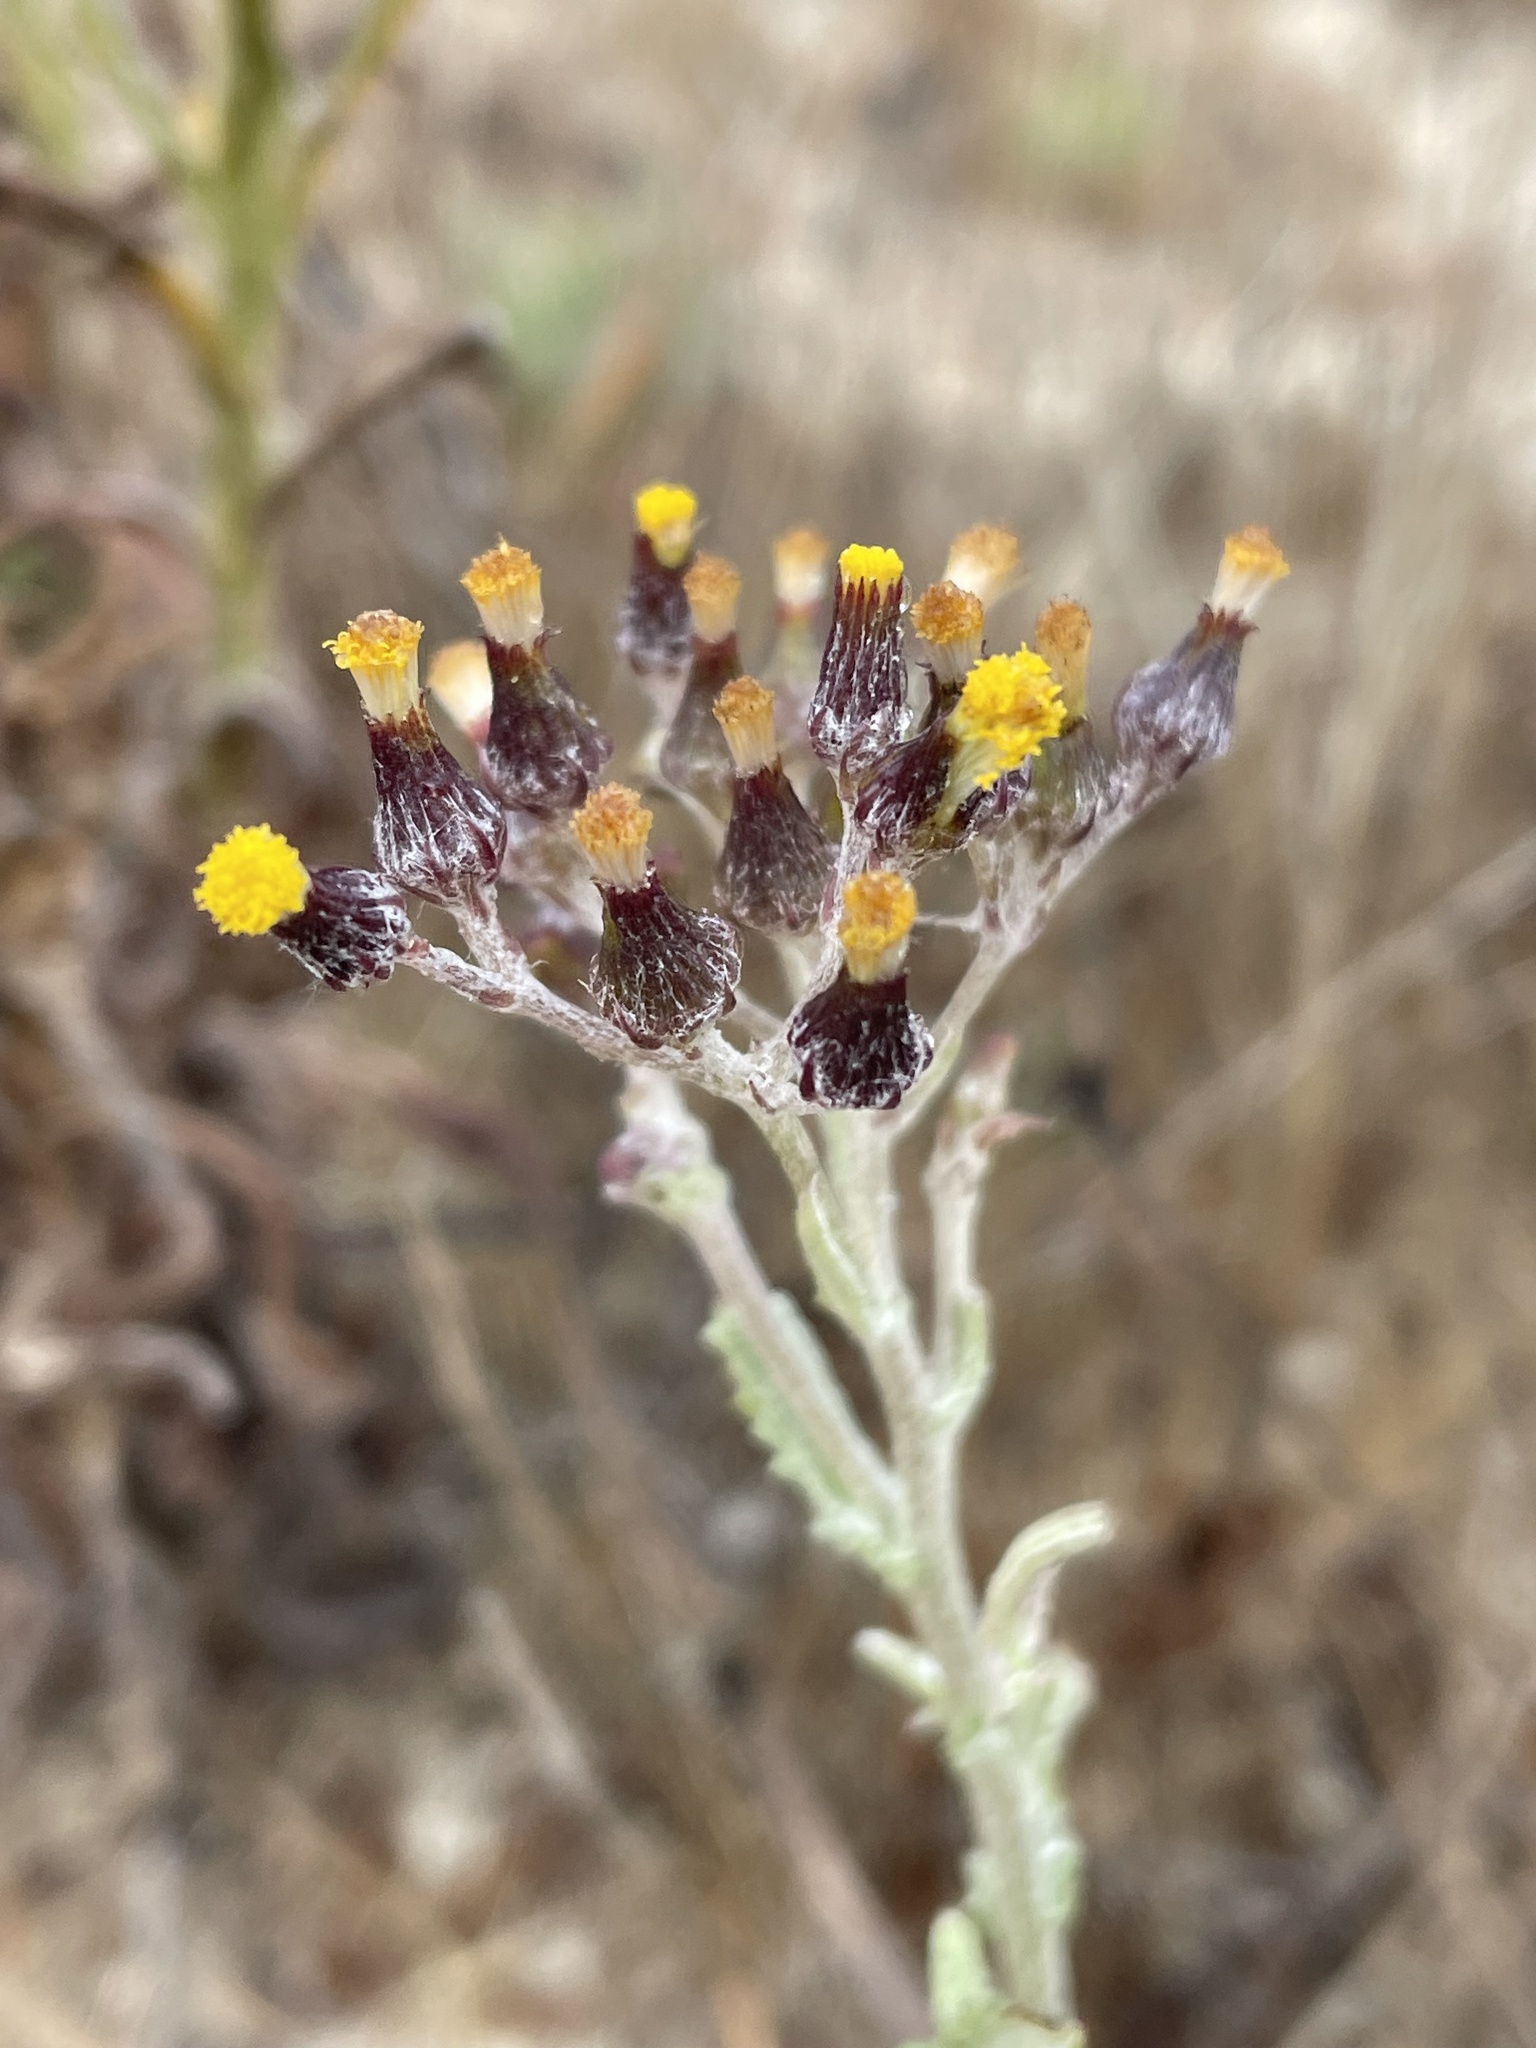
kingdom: Plantae
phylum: Tracheophyta
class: Magnoliopsida
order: Asterales
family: Asteraceae
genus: Senecio
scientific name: Senecio glomeratus
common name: Cutleaf burnweed
